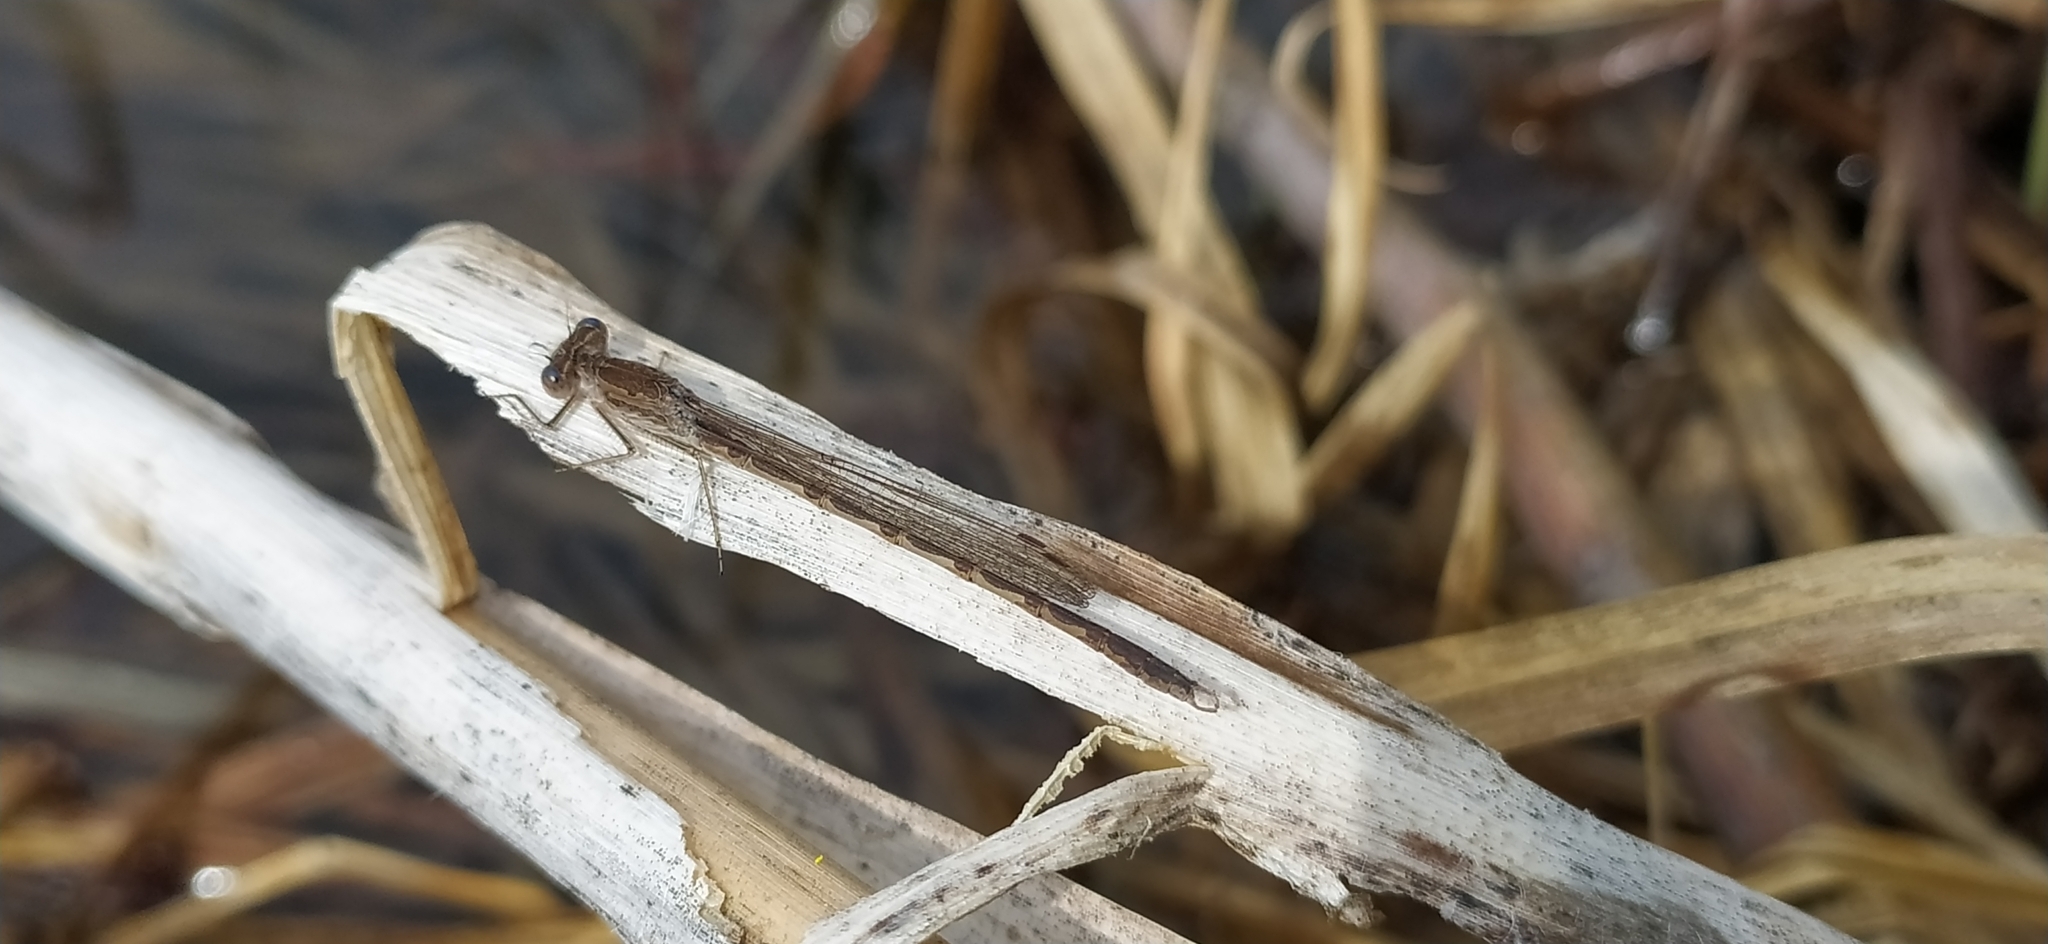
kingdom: Animalia
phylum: Arthropoda
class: Insecta
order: Odonata
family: Lestidae
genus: Sympecma
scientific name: Sympecma paedisca
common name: Siberian winter damsel
